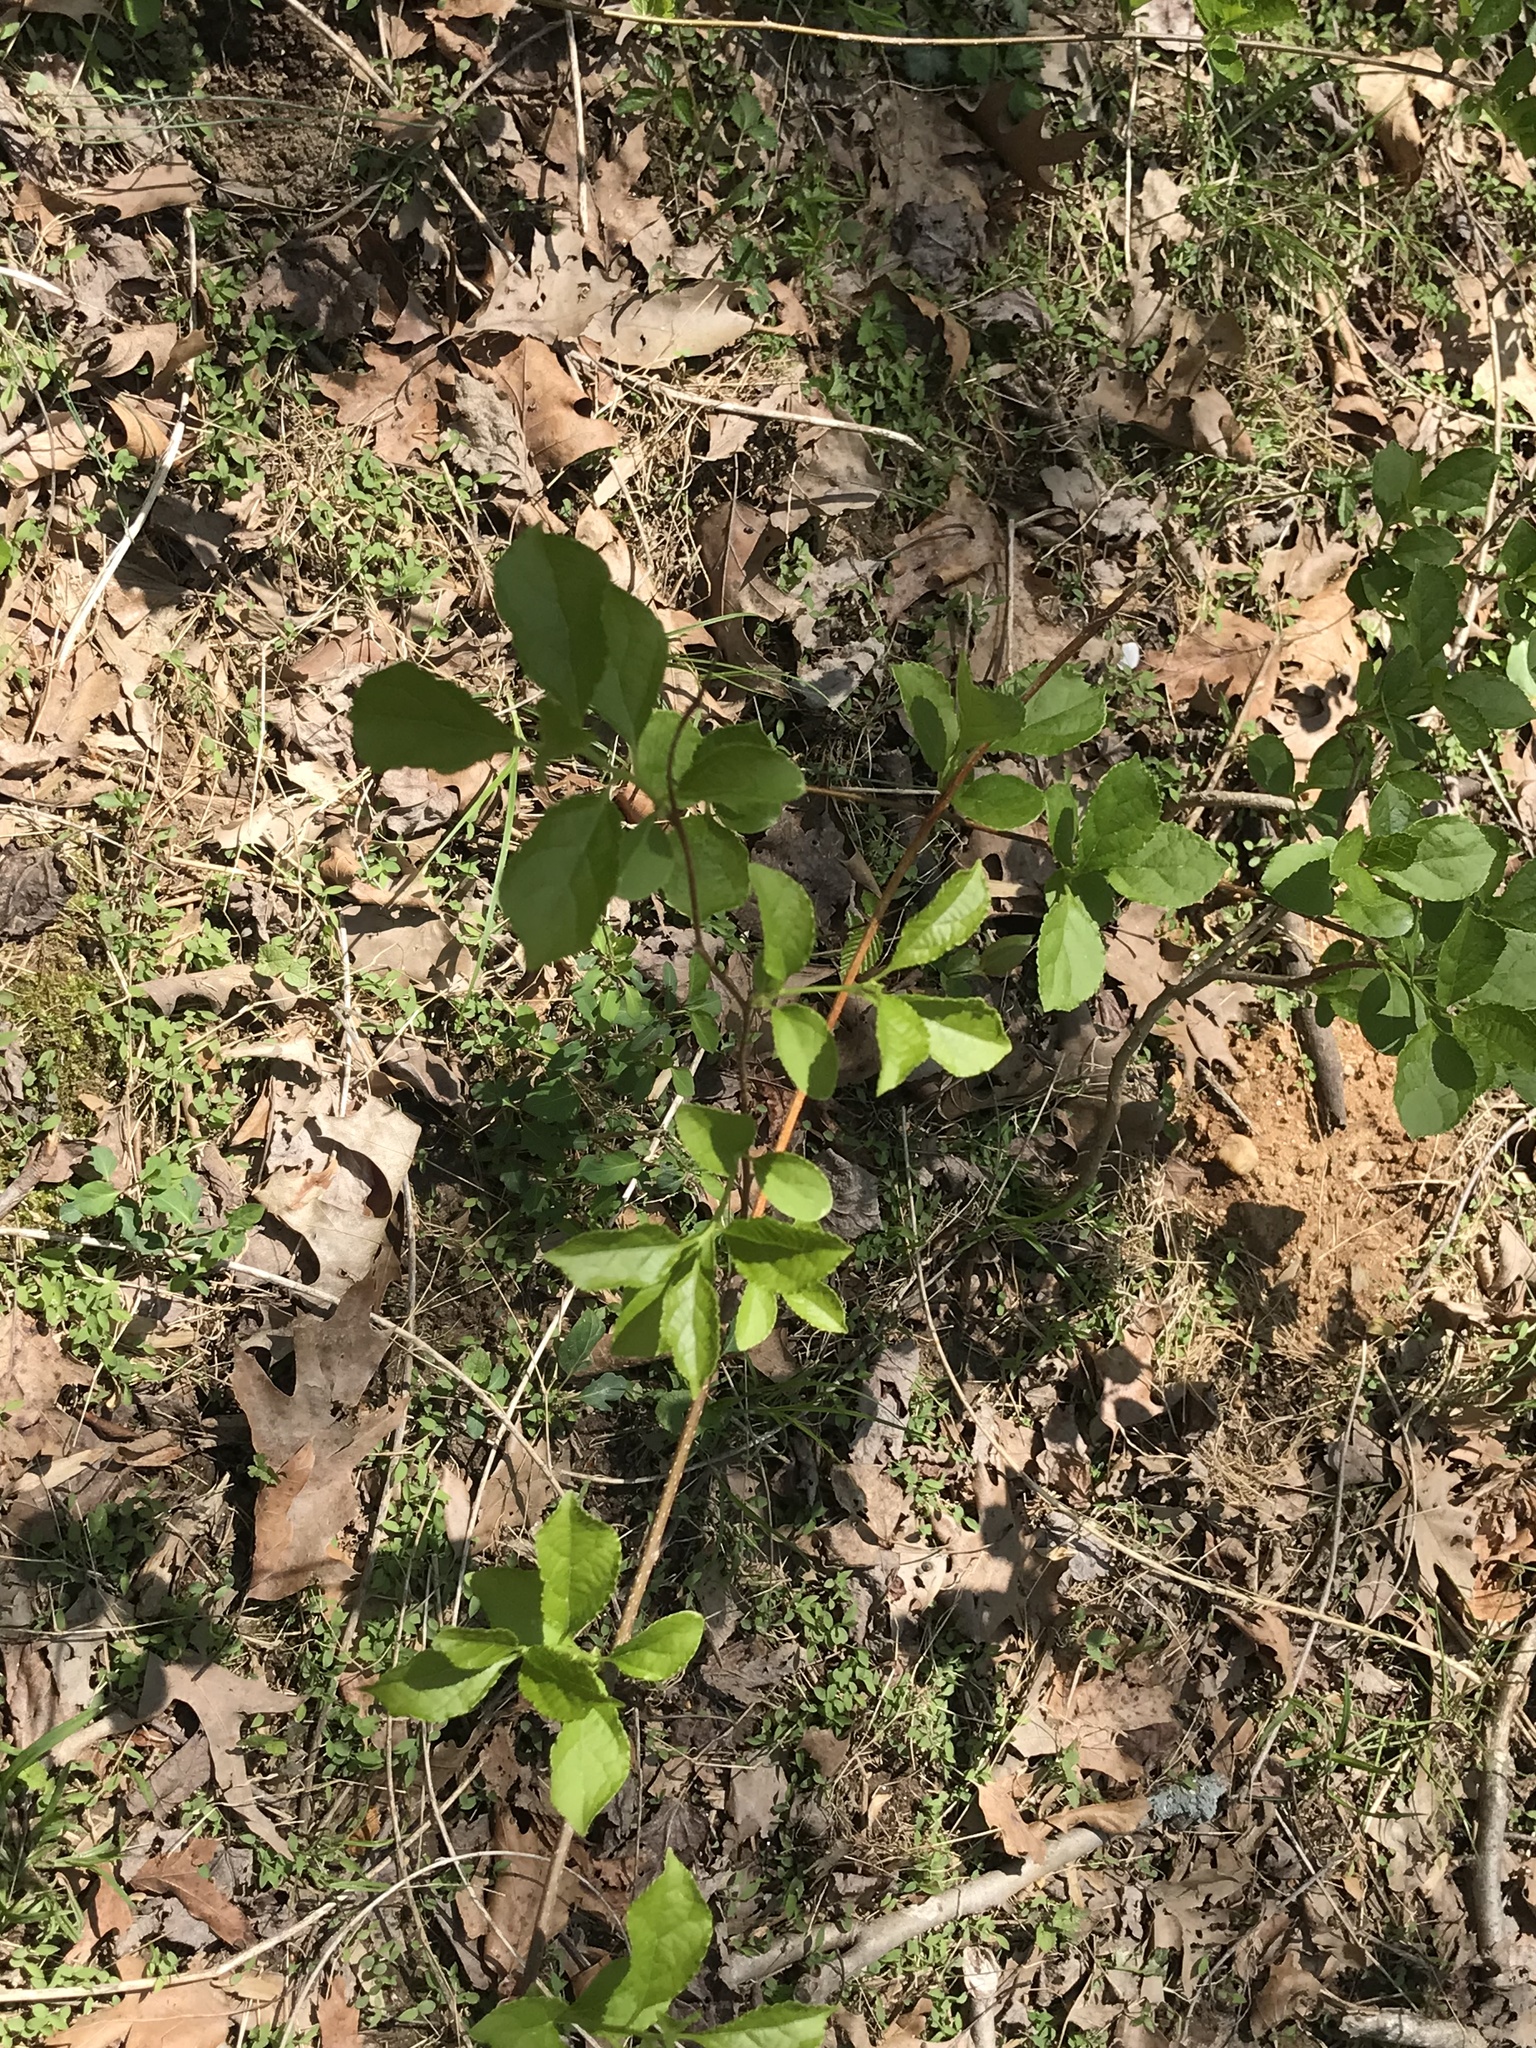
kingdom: Plantae
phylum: Tracheophyta
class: Magnoliopsida
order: Celastrales
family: Celastraceae
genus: Celastrus
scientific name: Celastrus orbiculatus
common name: Oriental bittersweet
